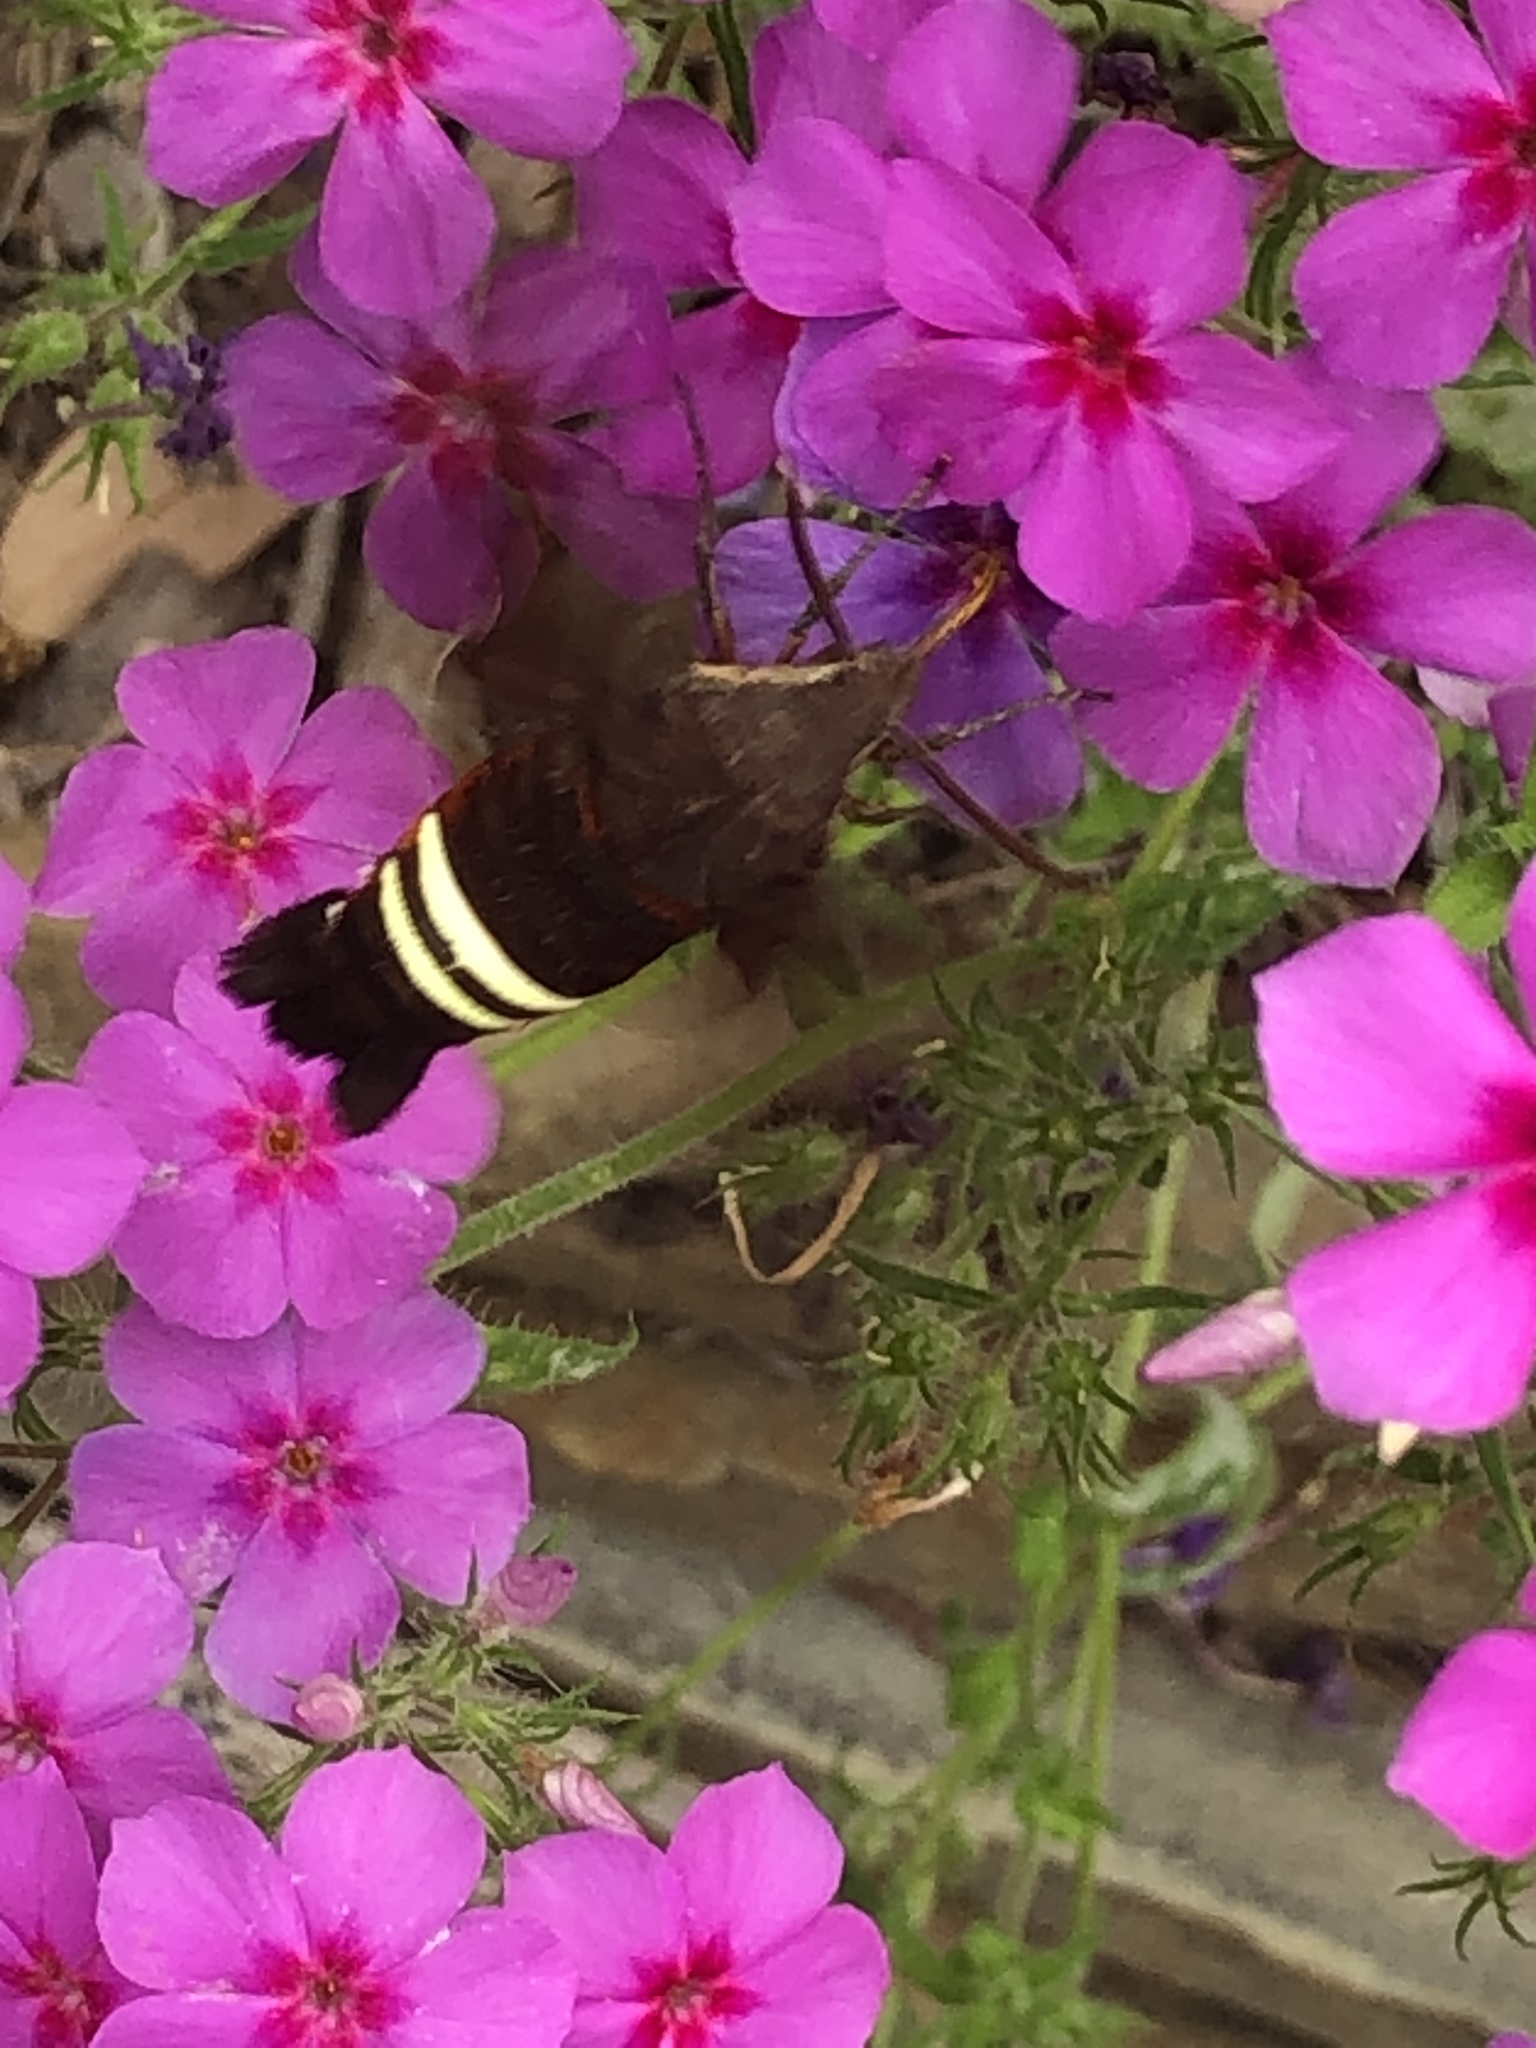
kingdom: Animalia
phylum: Arthropoda
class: Insecta
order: Lepidoptera
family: Sphingidae
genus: Amphion
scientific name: Amphion floridensis
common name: Nessus sphinx
